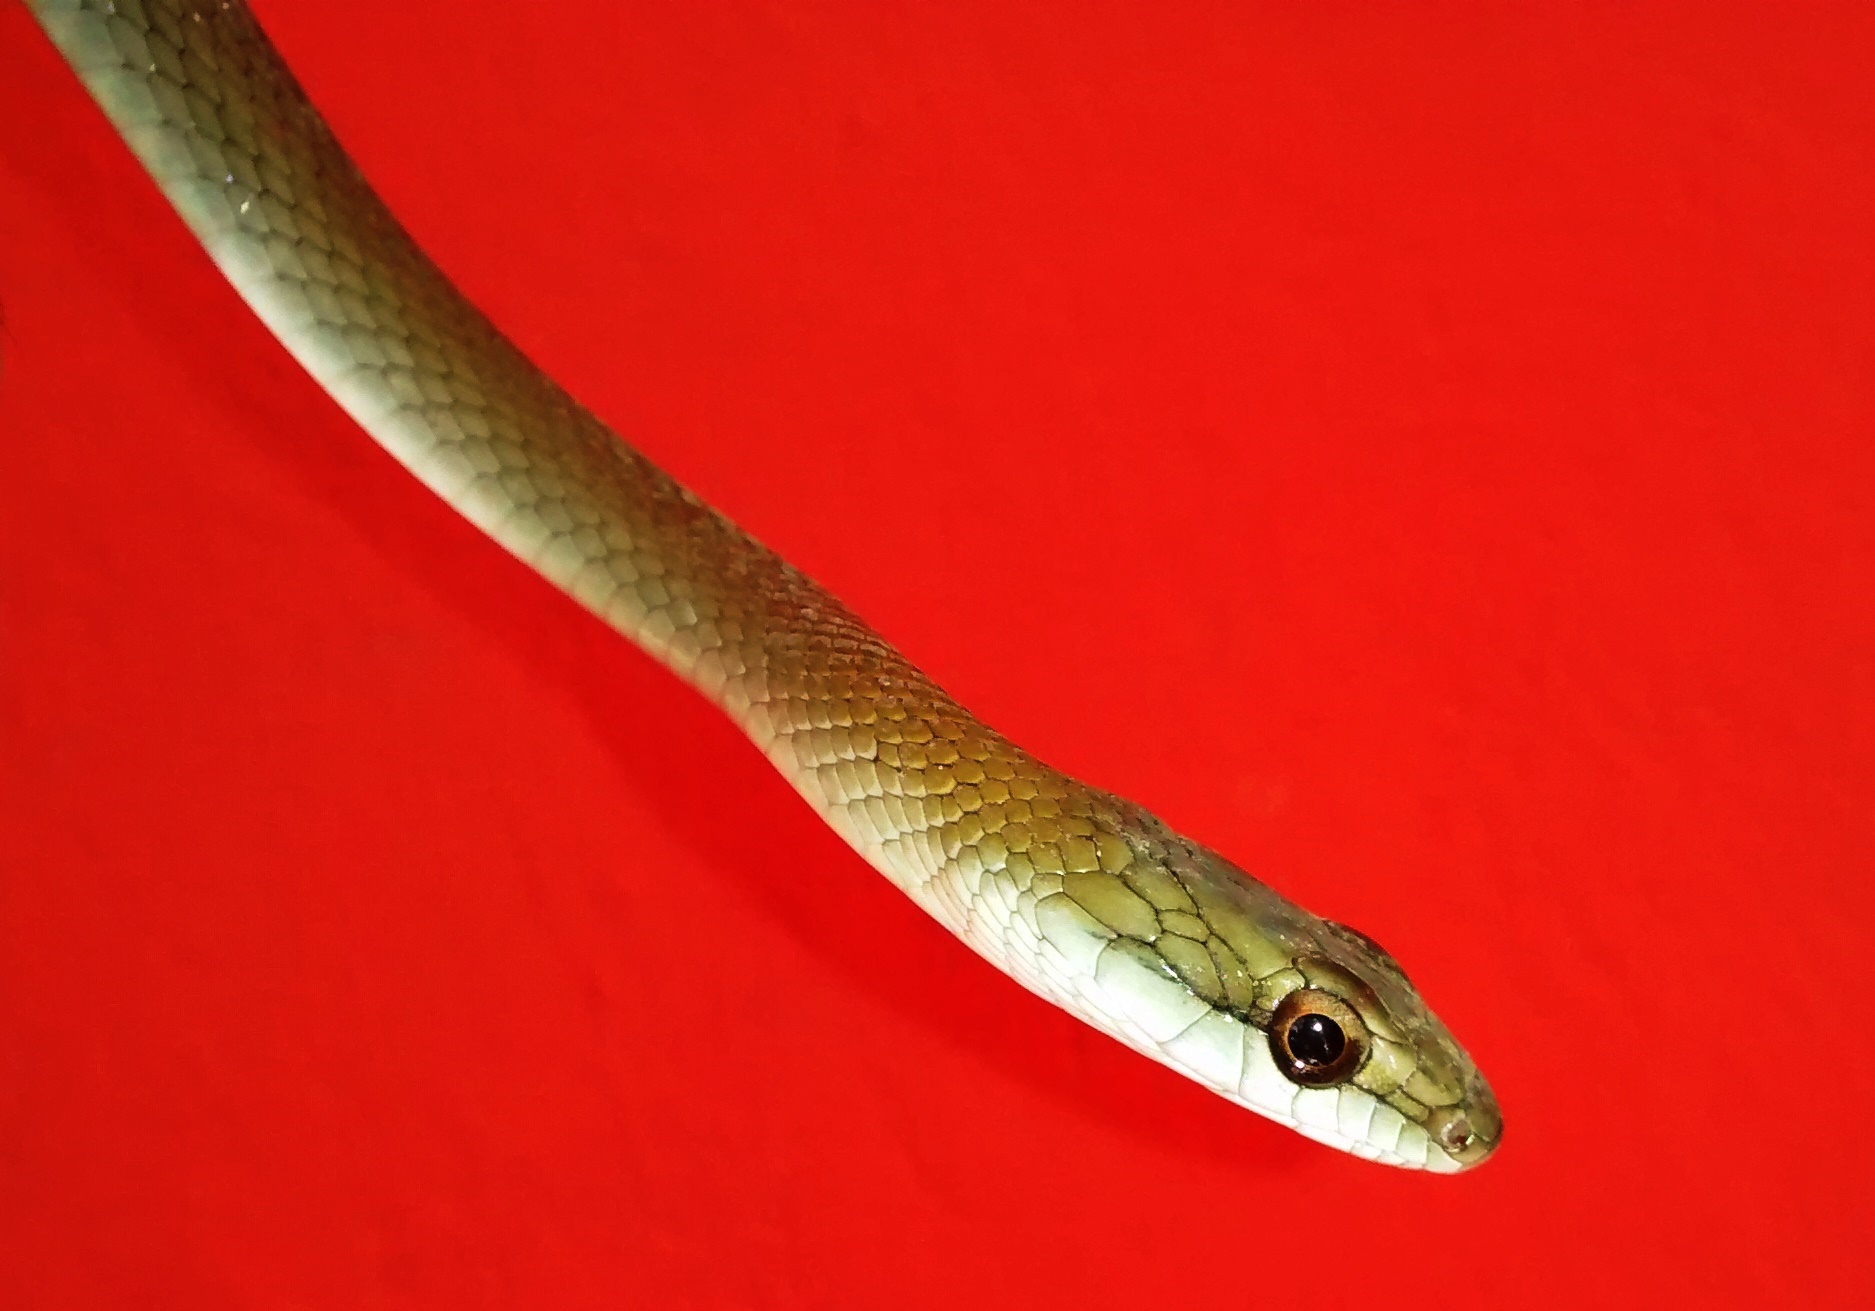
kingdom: Animalia
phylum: Chordata
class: Squamata
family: Colubridae
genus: Mastigodryas
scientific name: Mastigodryas melanolomus
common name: Salmon-bellied racer
